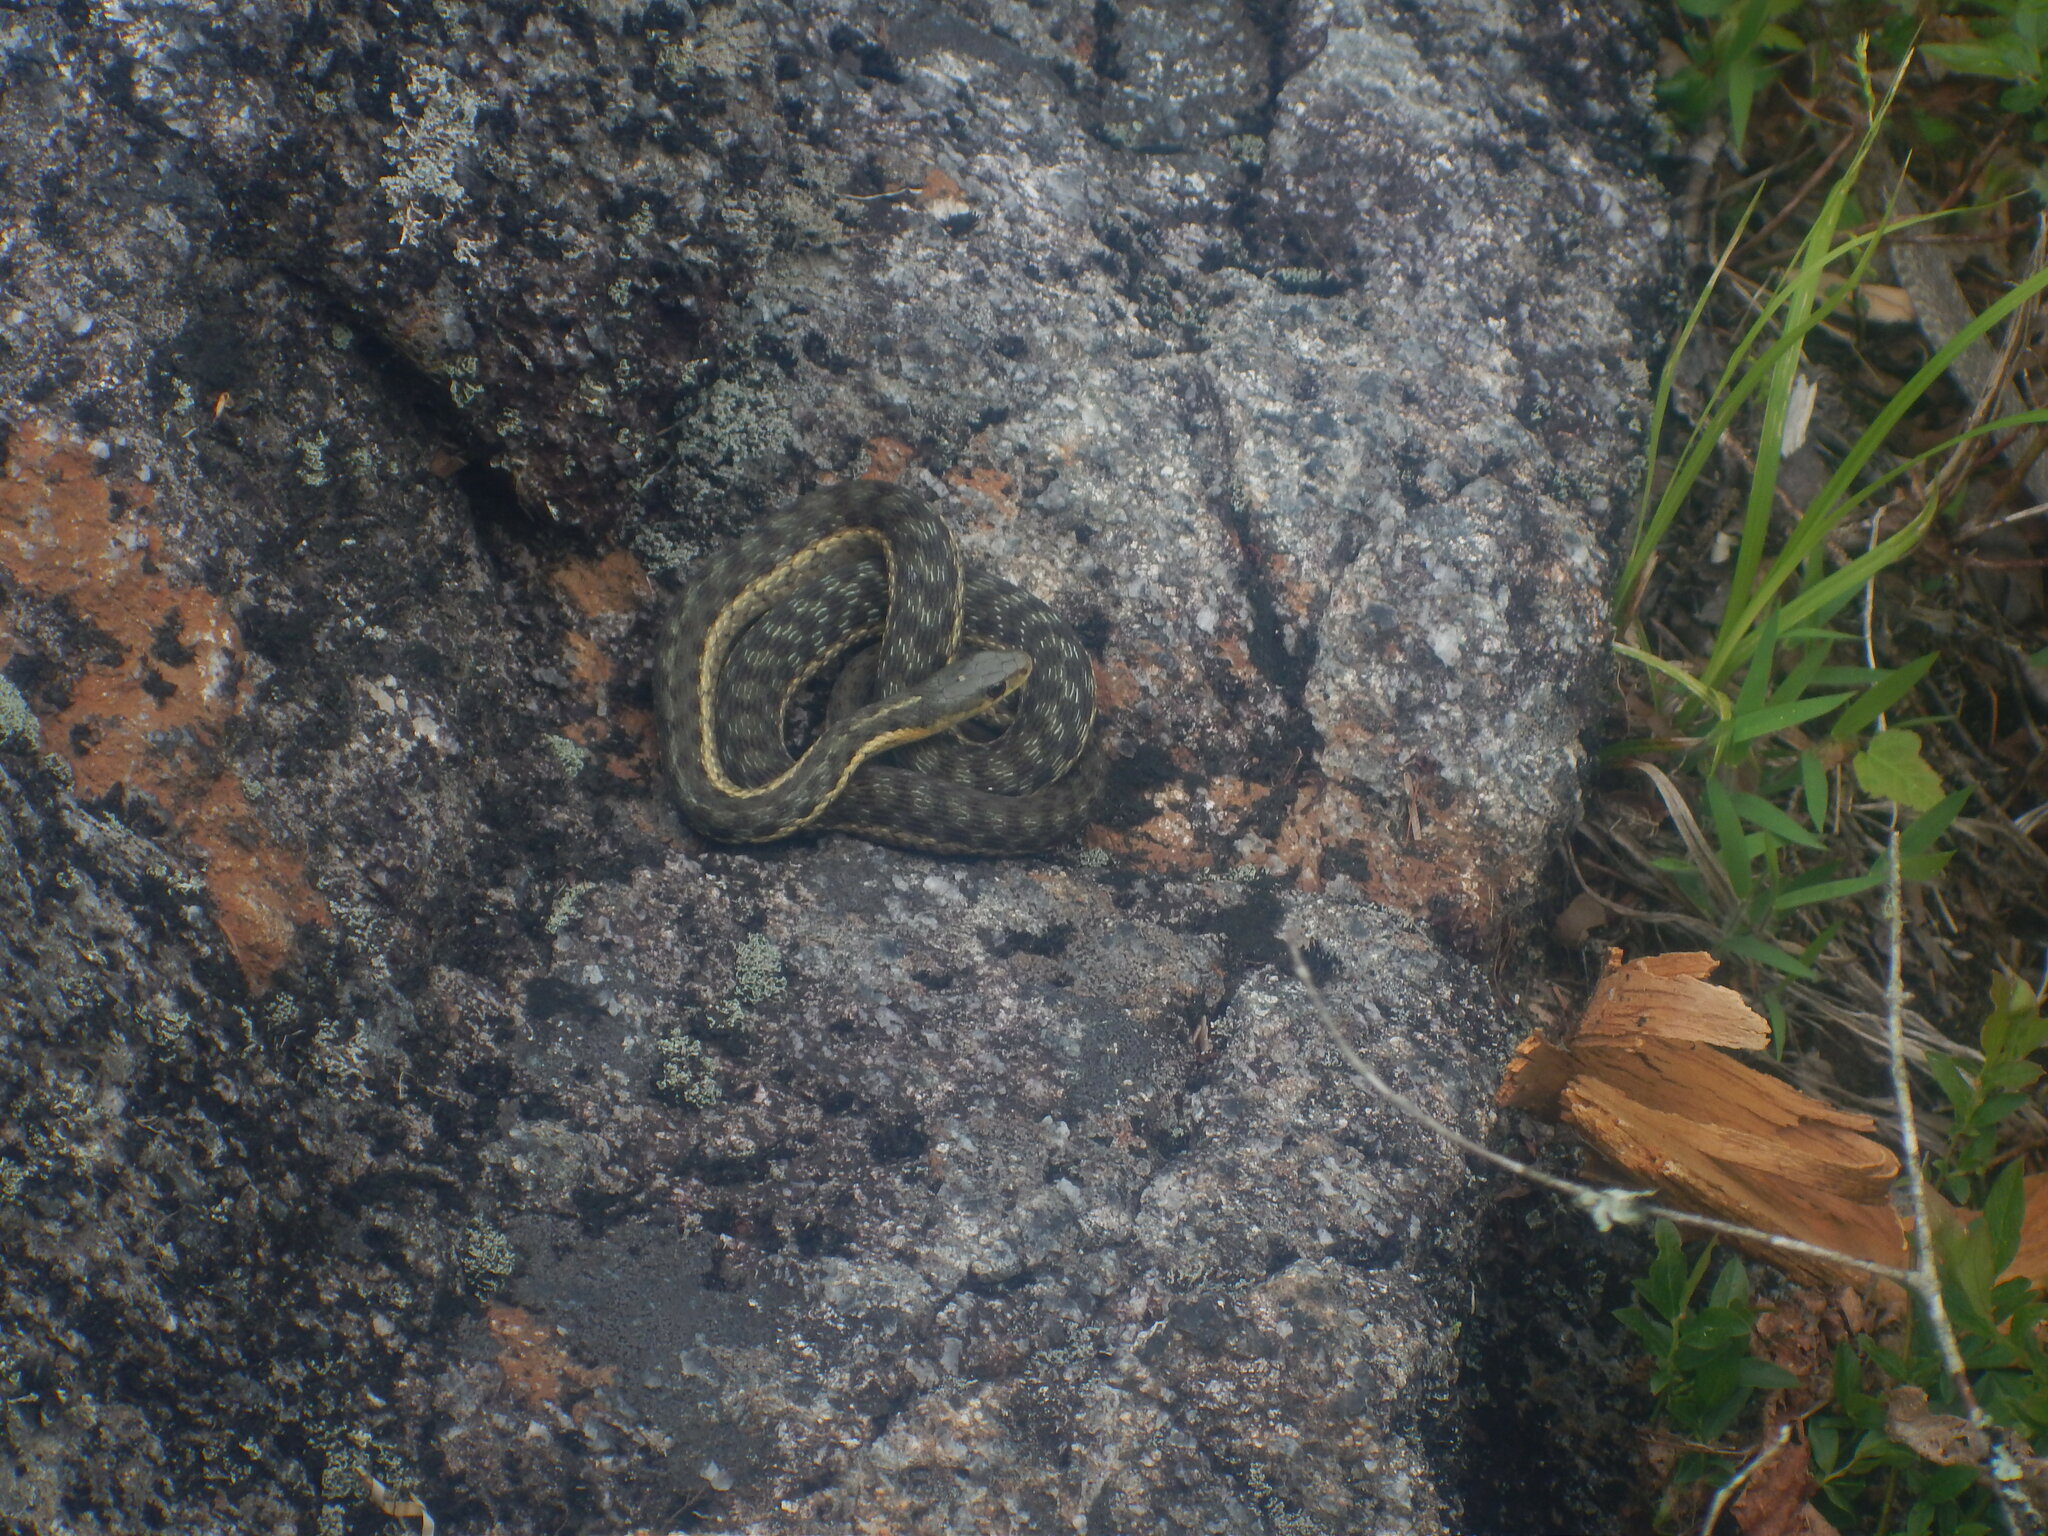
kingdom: Animalia
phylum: Chordata
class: Squamata
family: Colubridae
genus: Thamnophis
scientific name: Thamnophis sirtalis
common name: Common garter snake
